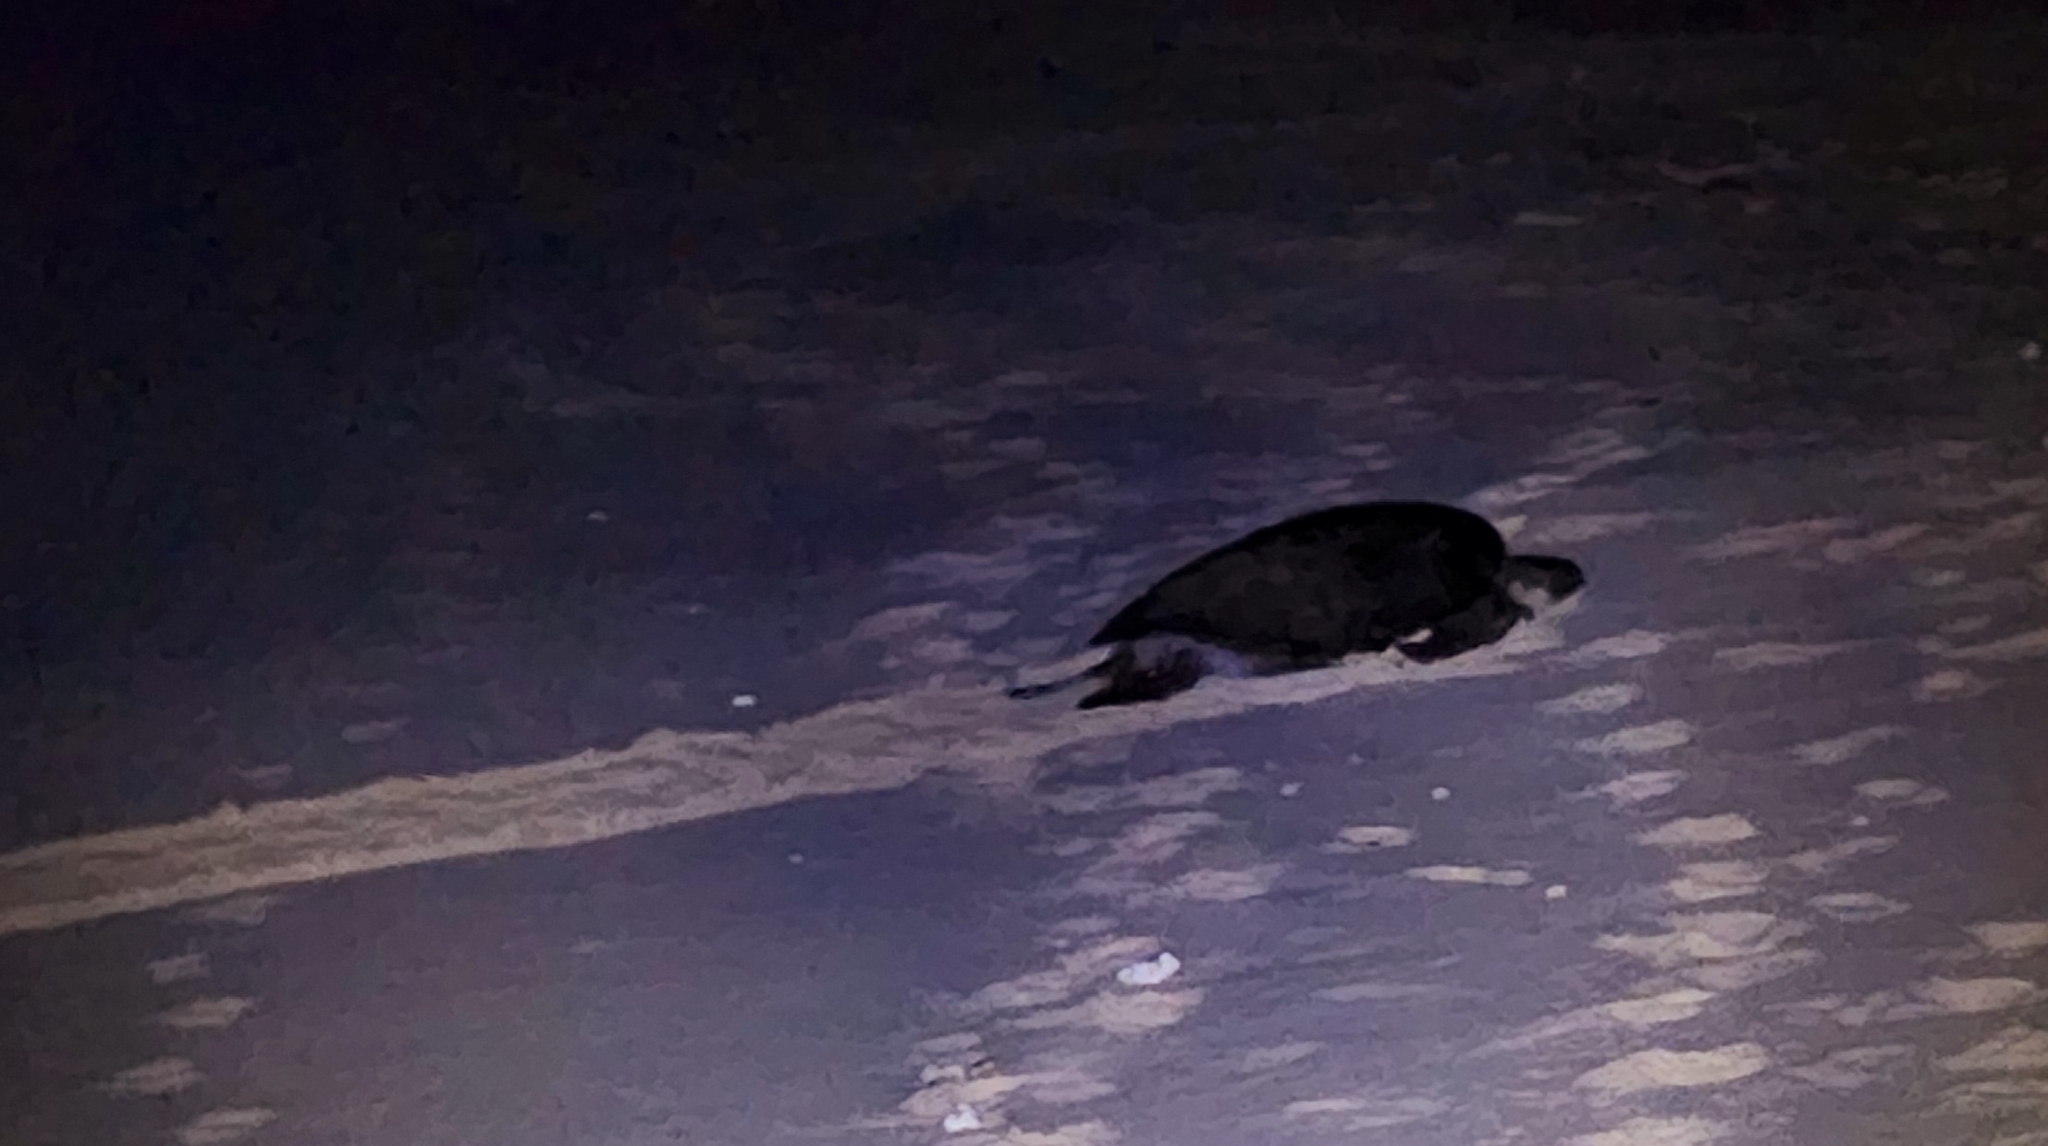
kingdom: Animalia
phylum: Chordata
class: Testudines
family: Cheloniidae
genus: Chelonia
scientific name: Chelonia mydas
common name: Green turtle
